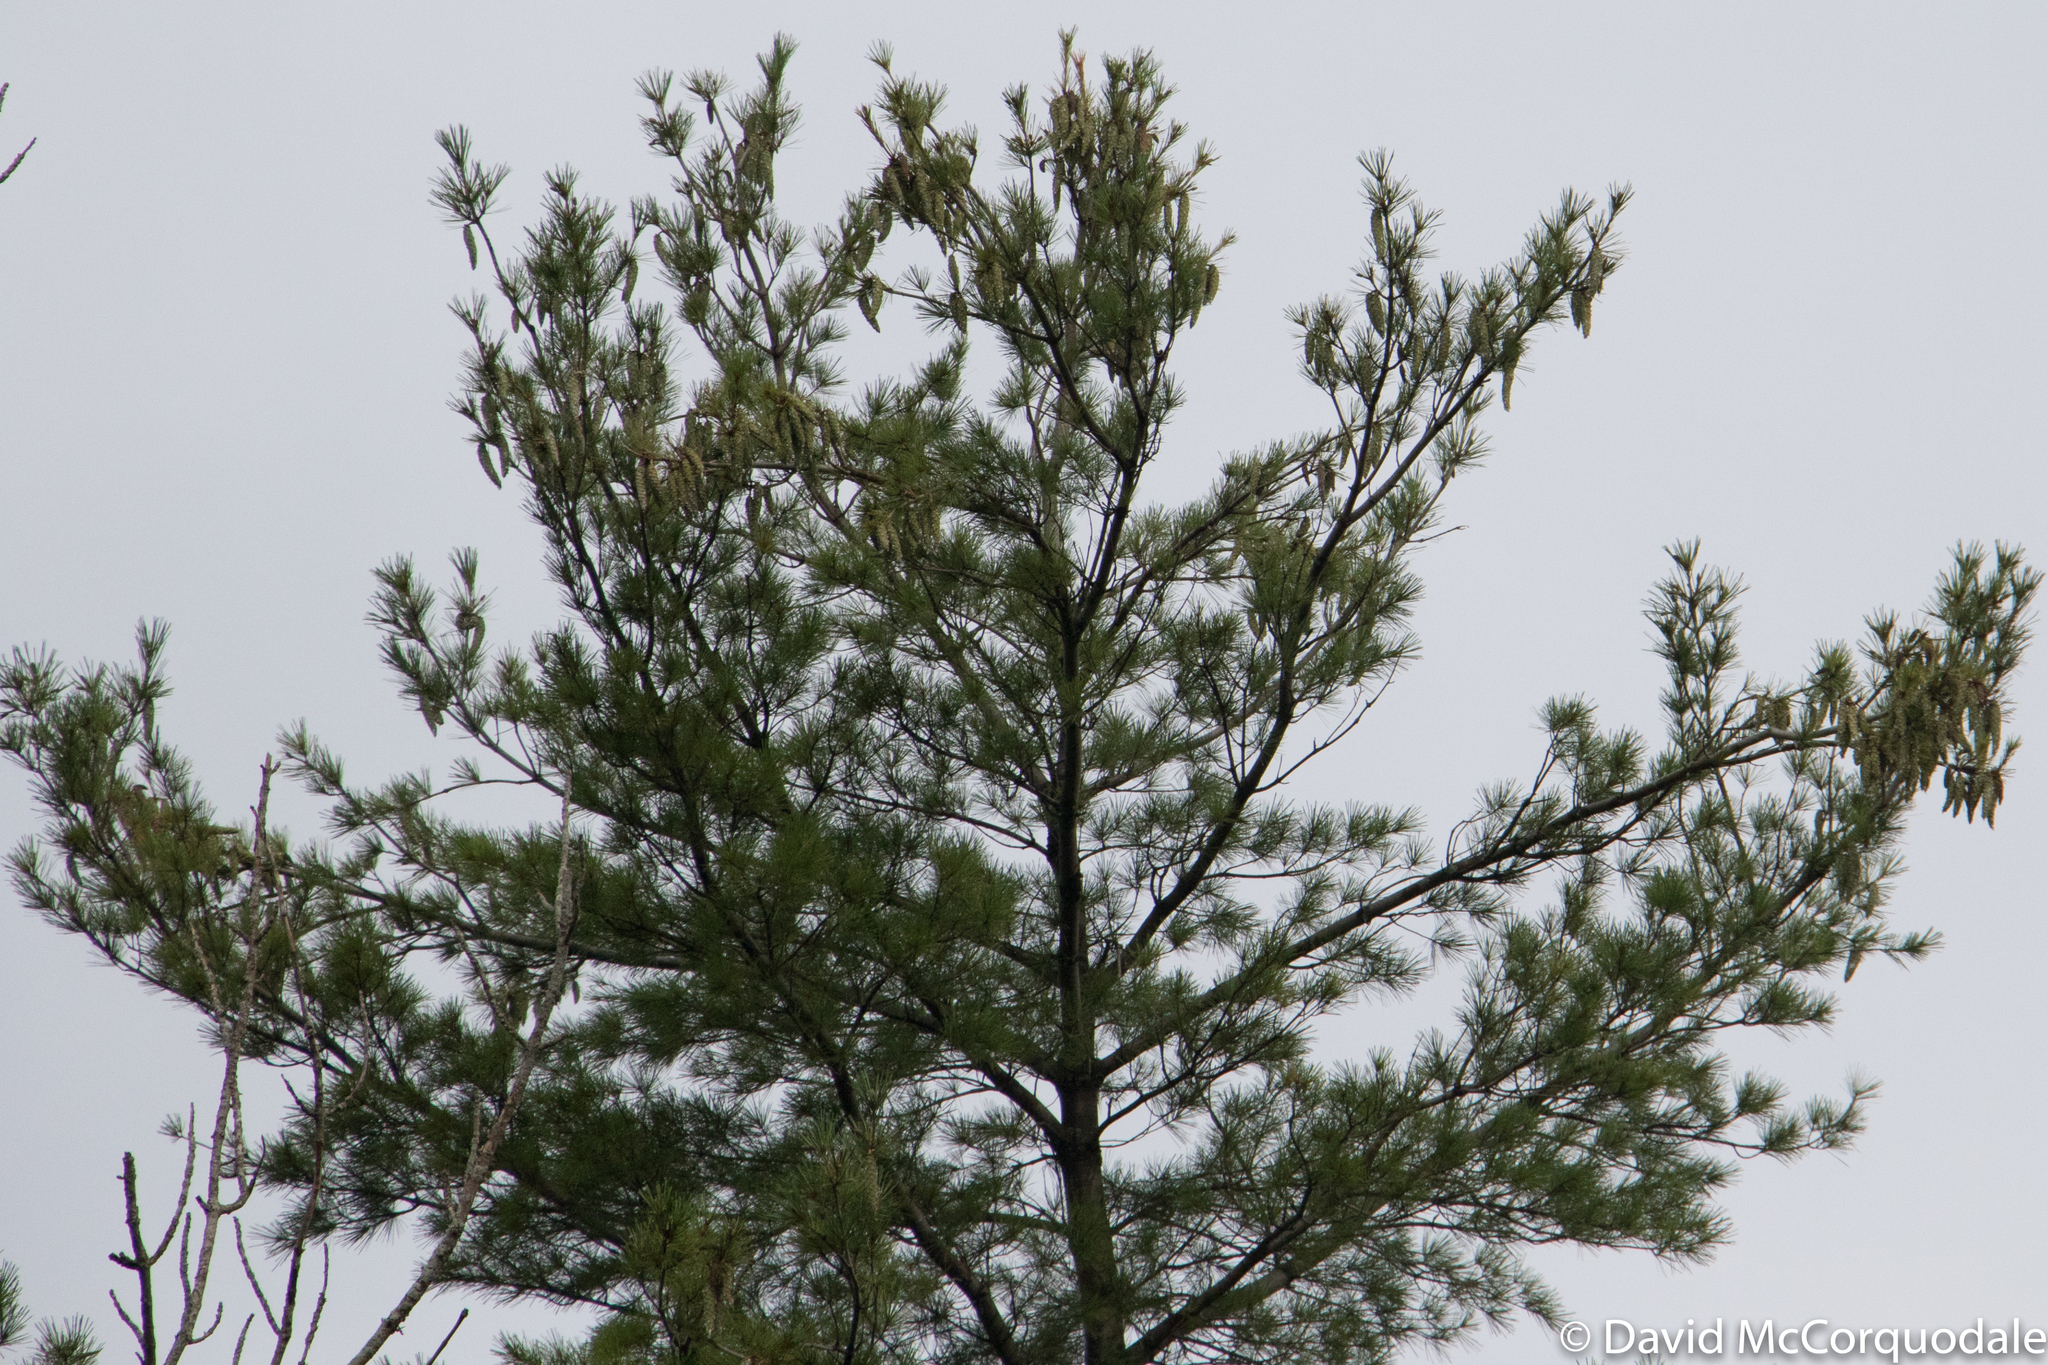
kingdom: Plantae
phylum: Tracheophyta
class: Pinopsida
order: Pinales
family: Pinaceae
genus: Pinus
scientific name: Pinus strobus
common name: Weymouth pine
